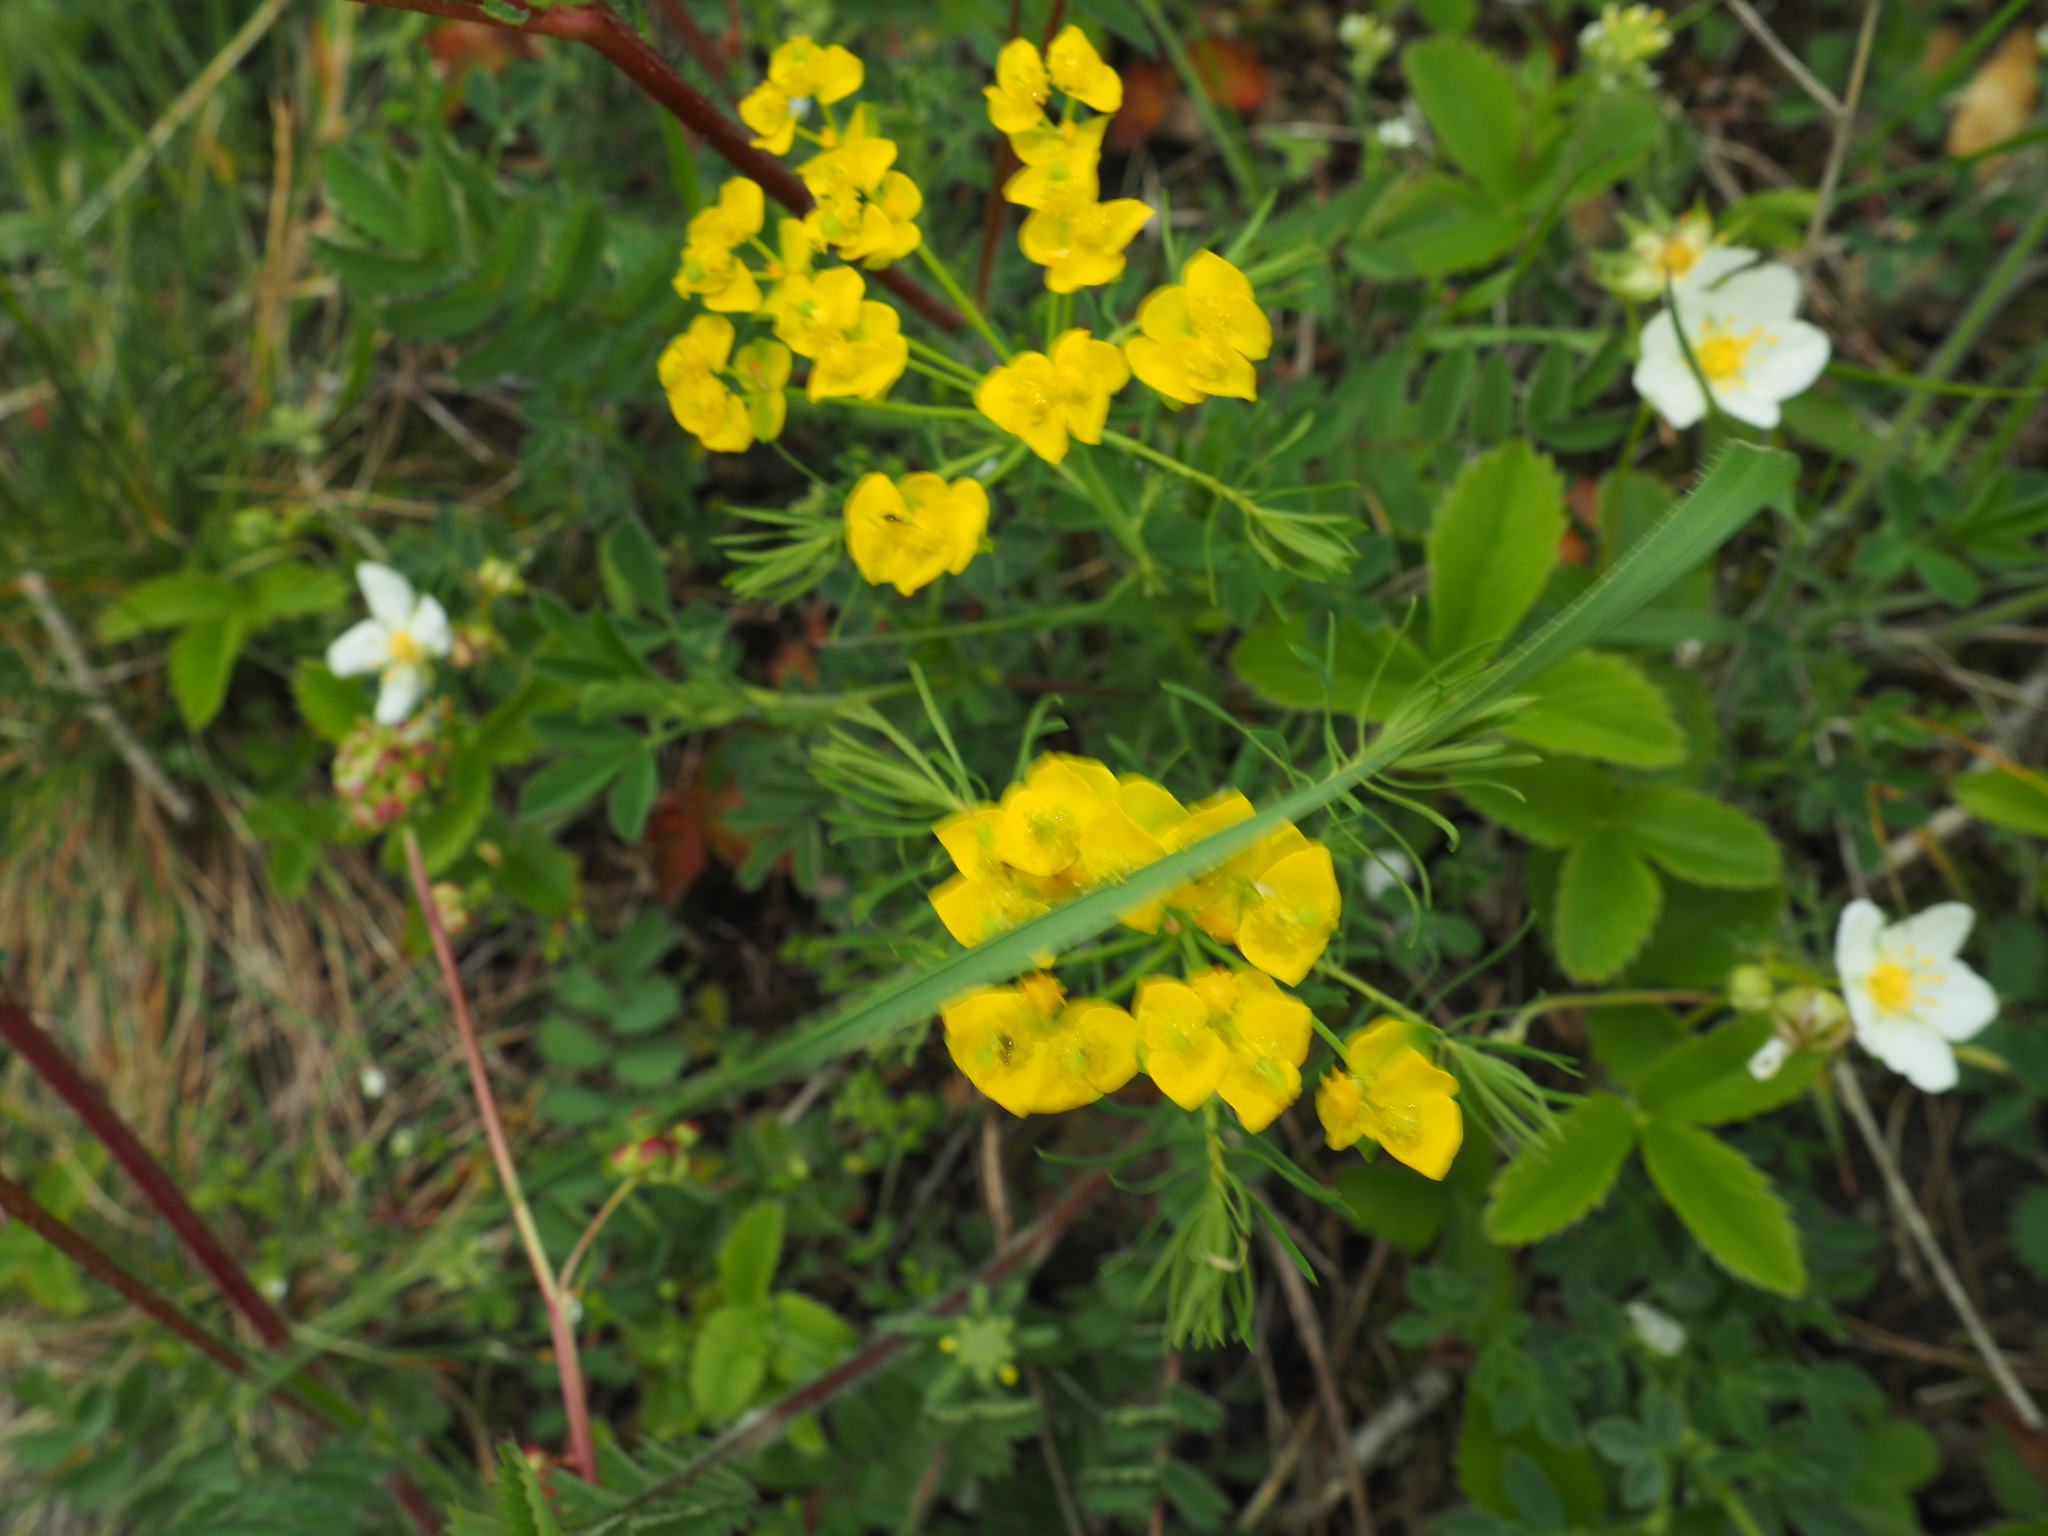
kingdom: Plantae
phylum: Tracheophyta
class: Magnoliopsida
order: Malpighiales
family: Euphorbiaceae
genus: Euphorbia
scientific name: Euphorbia cyparissias
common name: Cypress spurge
